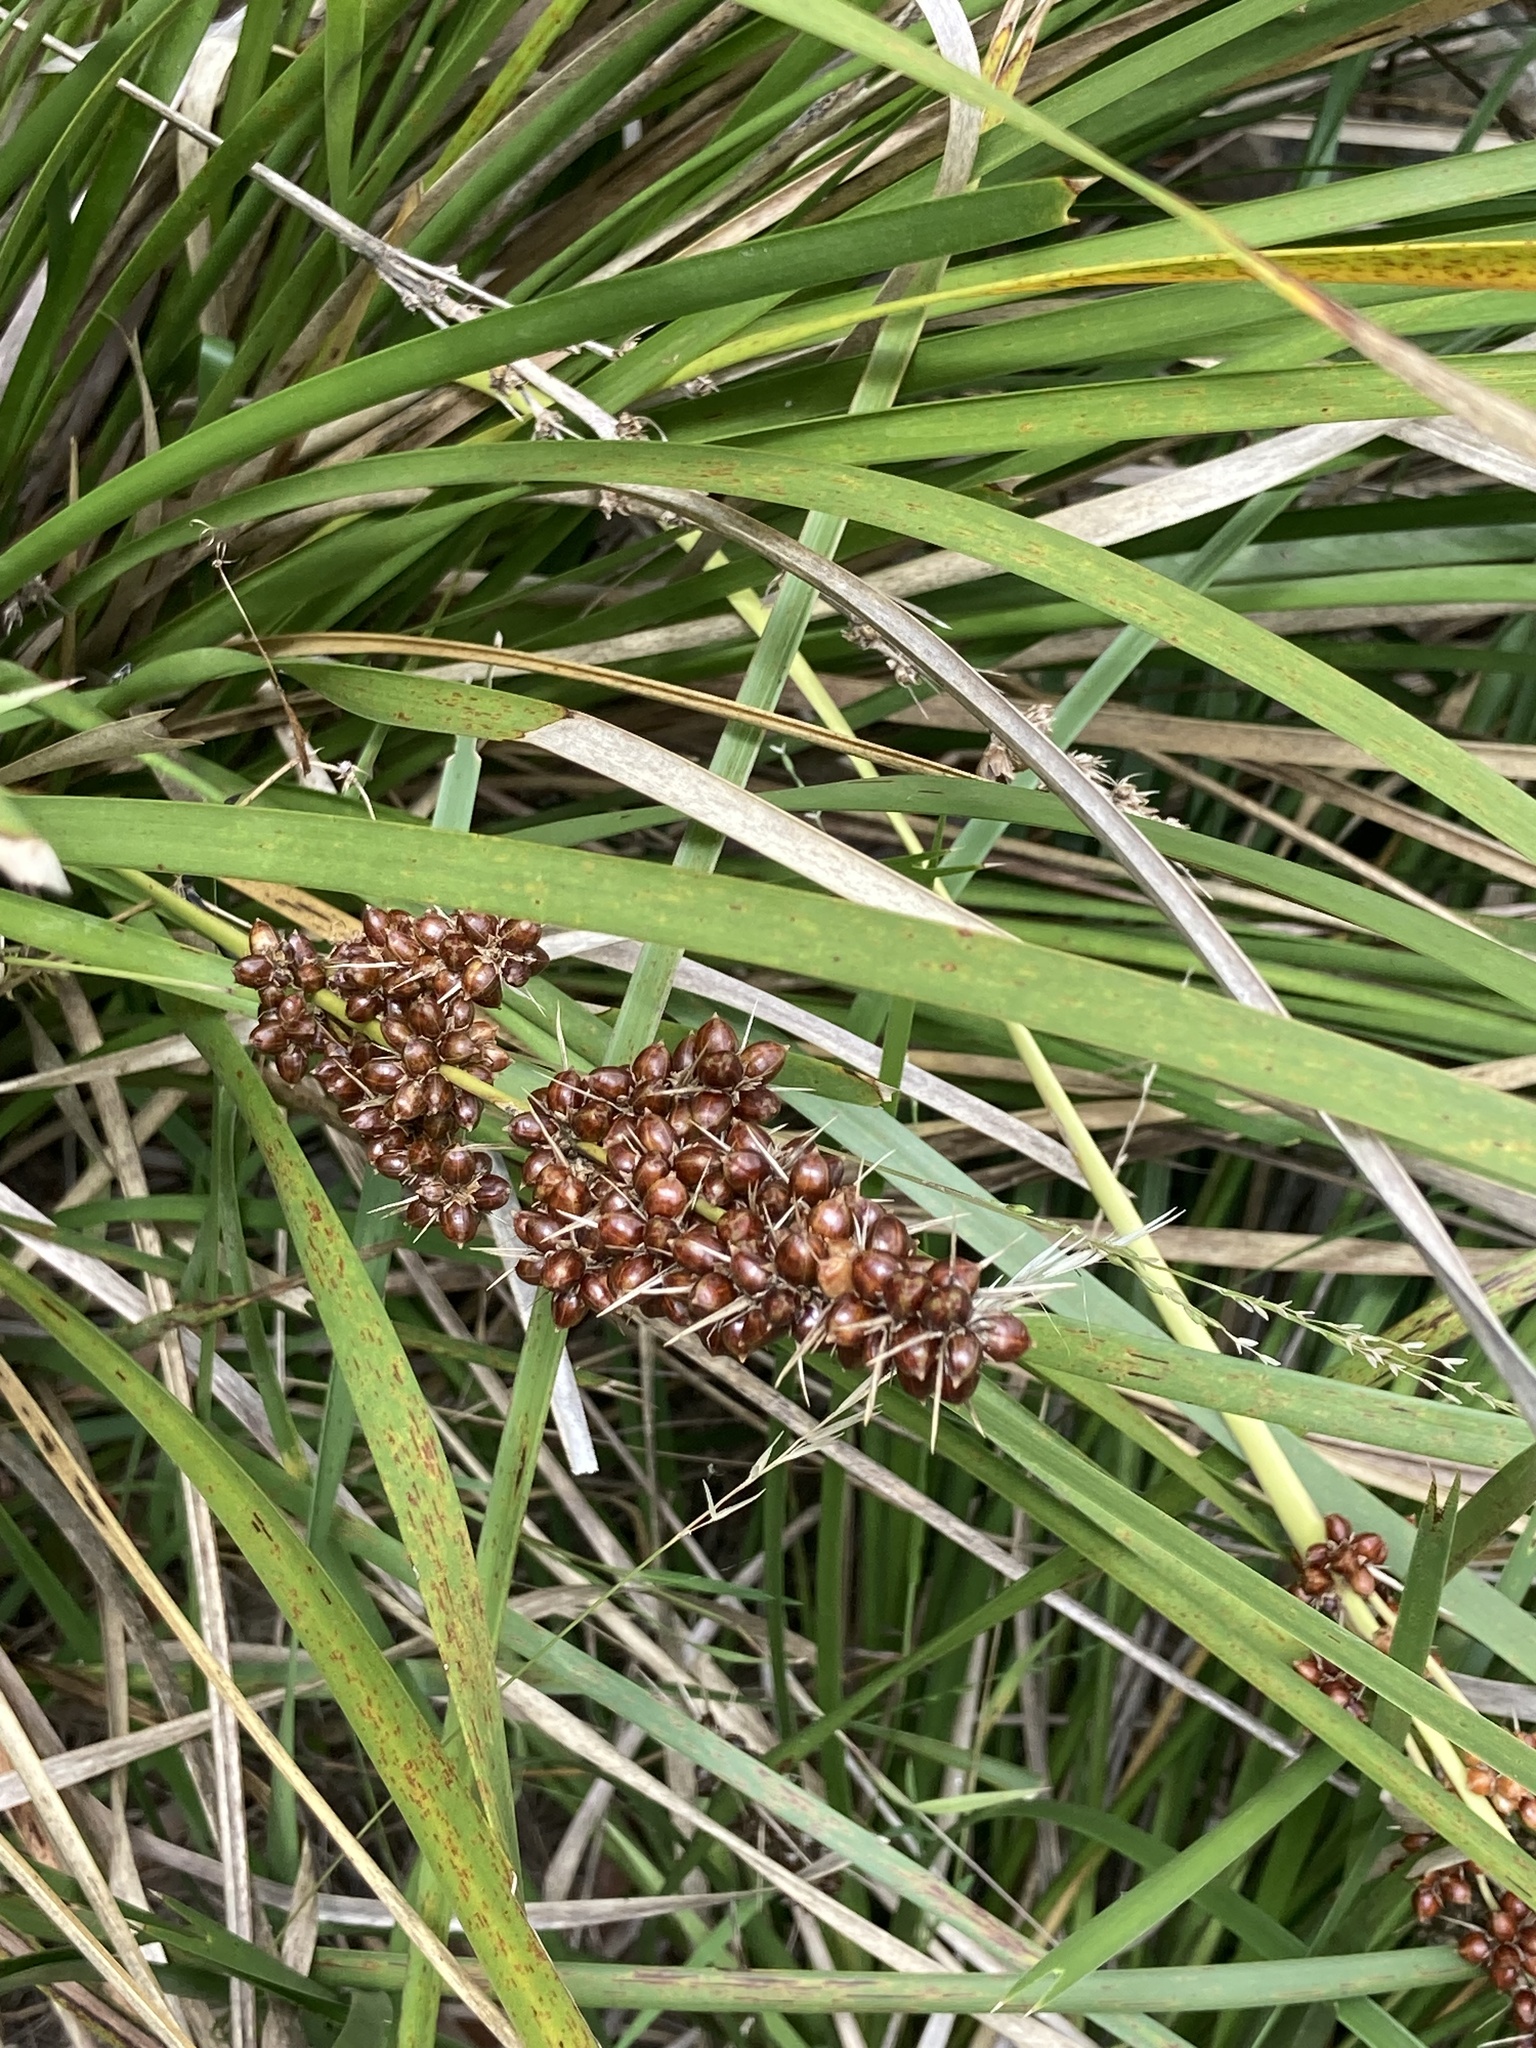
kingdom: Plantae
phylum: Tracheophyta
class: Liliopsida
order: Asparagales
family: Asparagaceae
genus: Lomandra
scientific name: Lomandra longifolia
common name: Longleaf mat-rush
